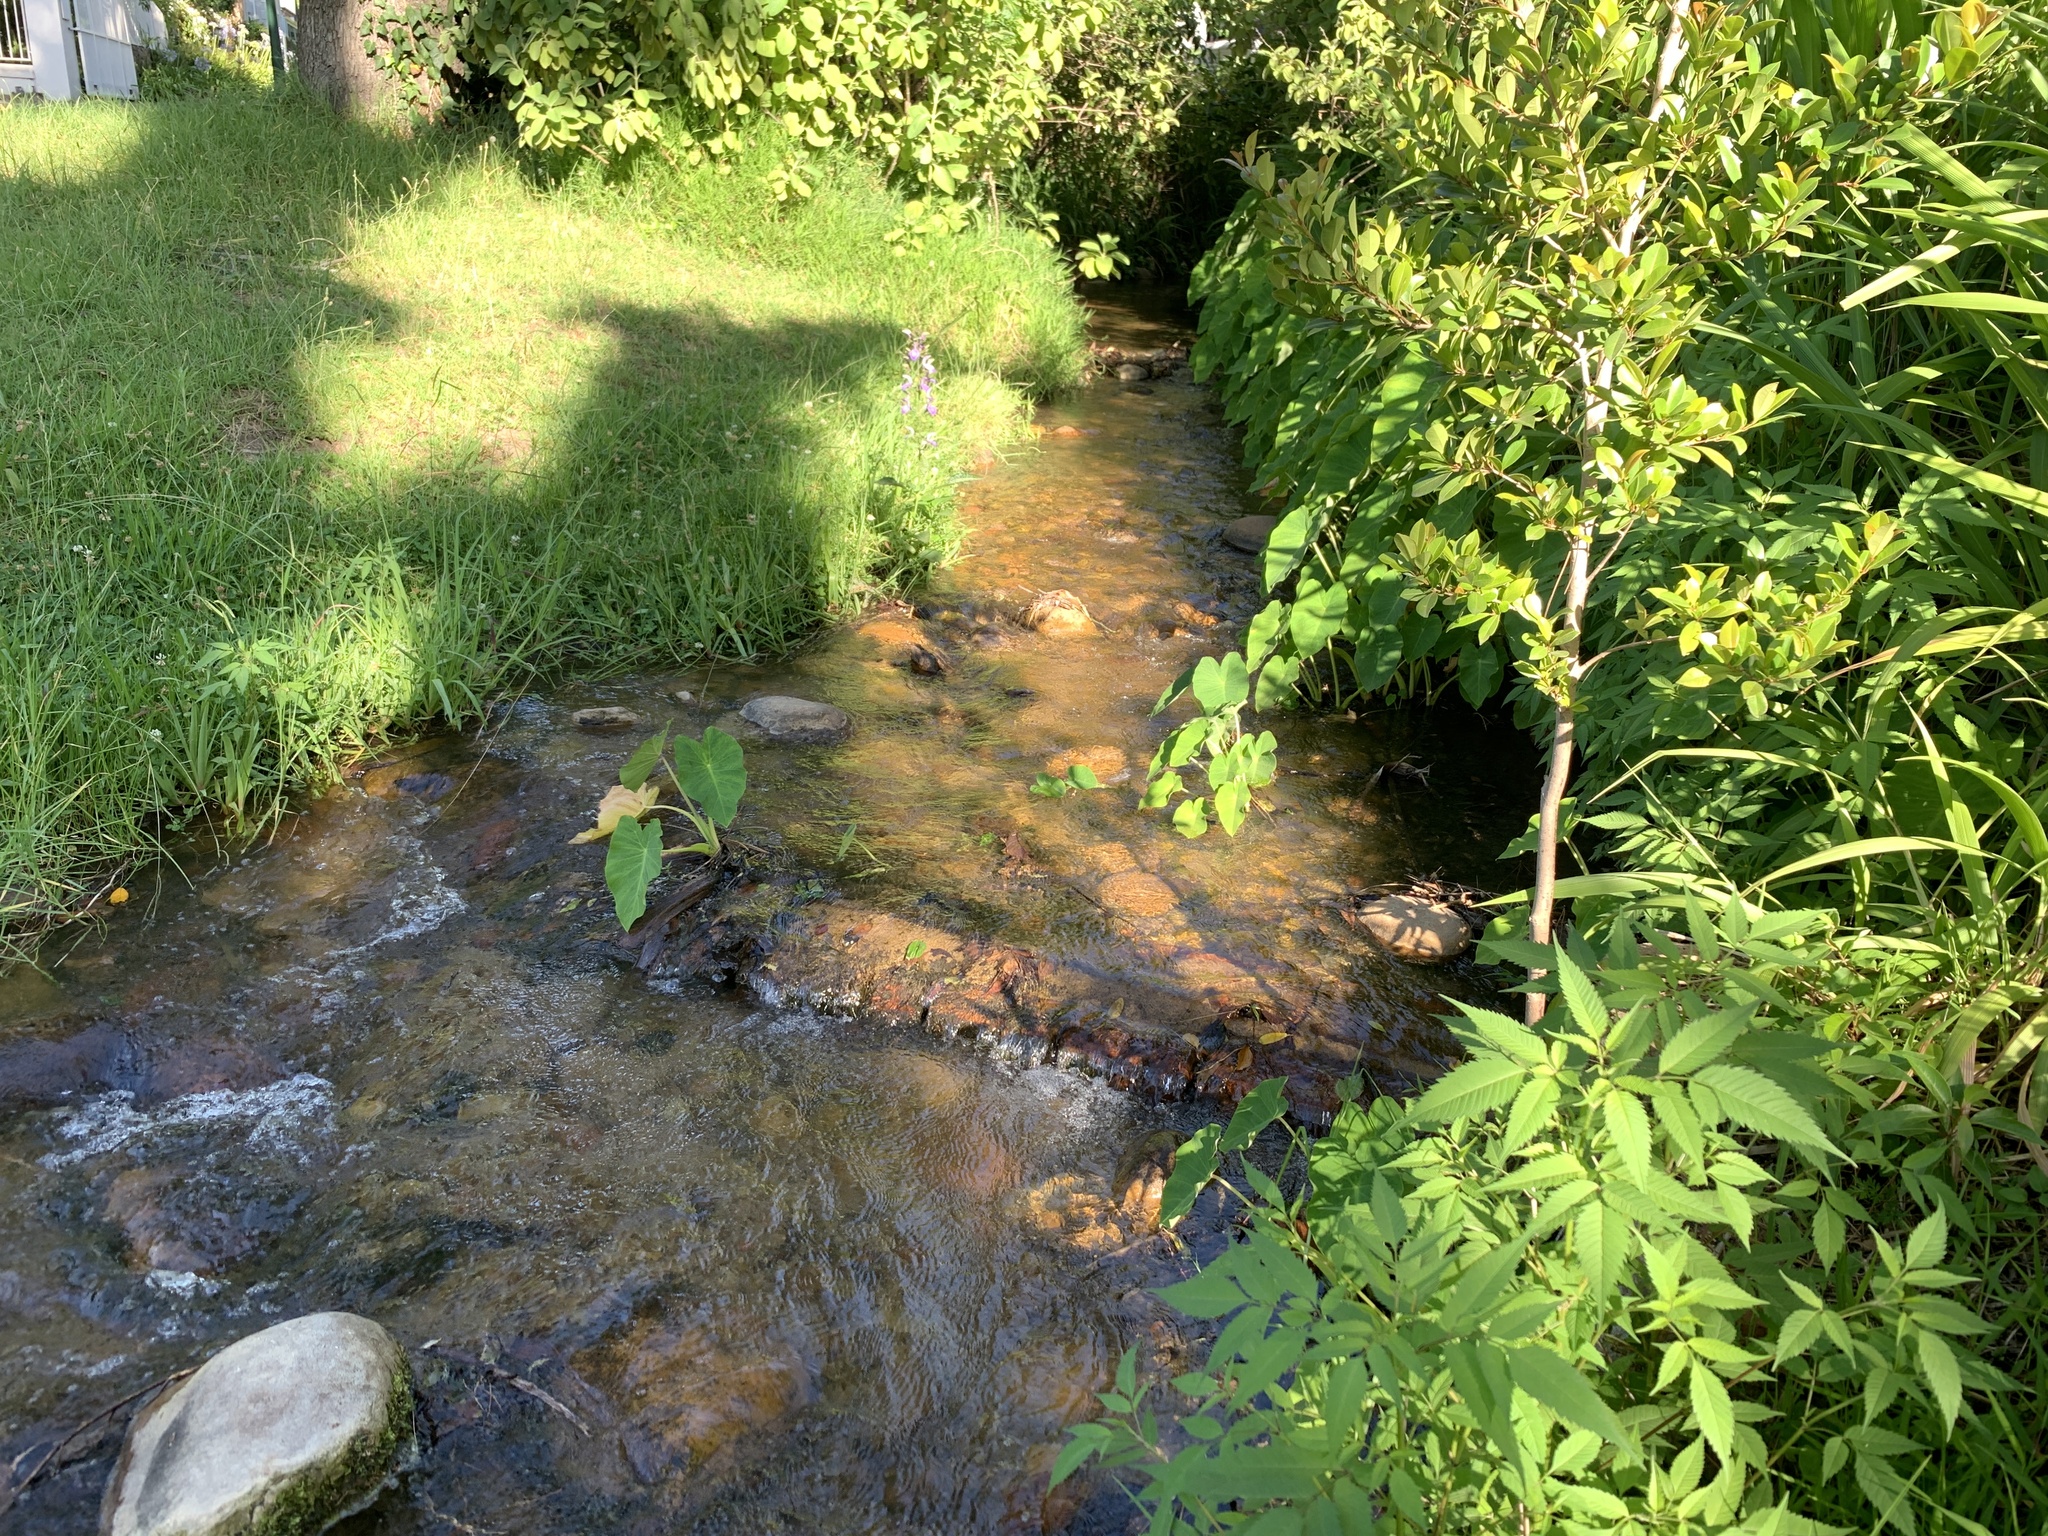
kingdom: Plantae
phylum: Tracheophyta
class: Liliopsida
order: Alismatales
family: Araceae
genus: Colocasia
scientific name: Colocasia esculenta
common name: Taro
